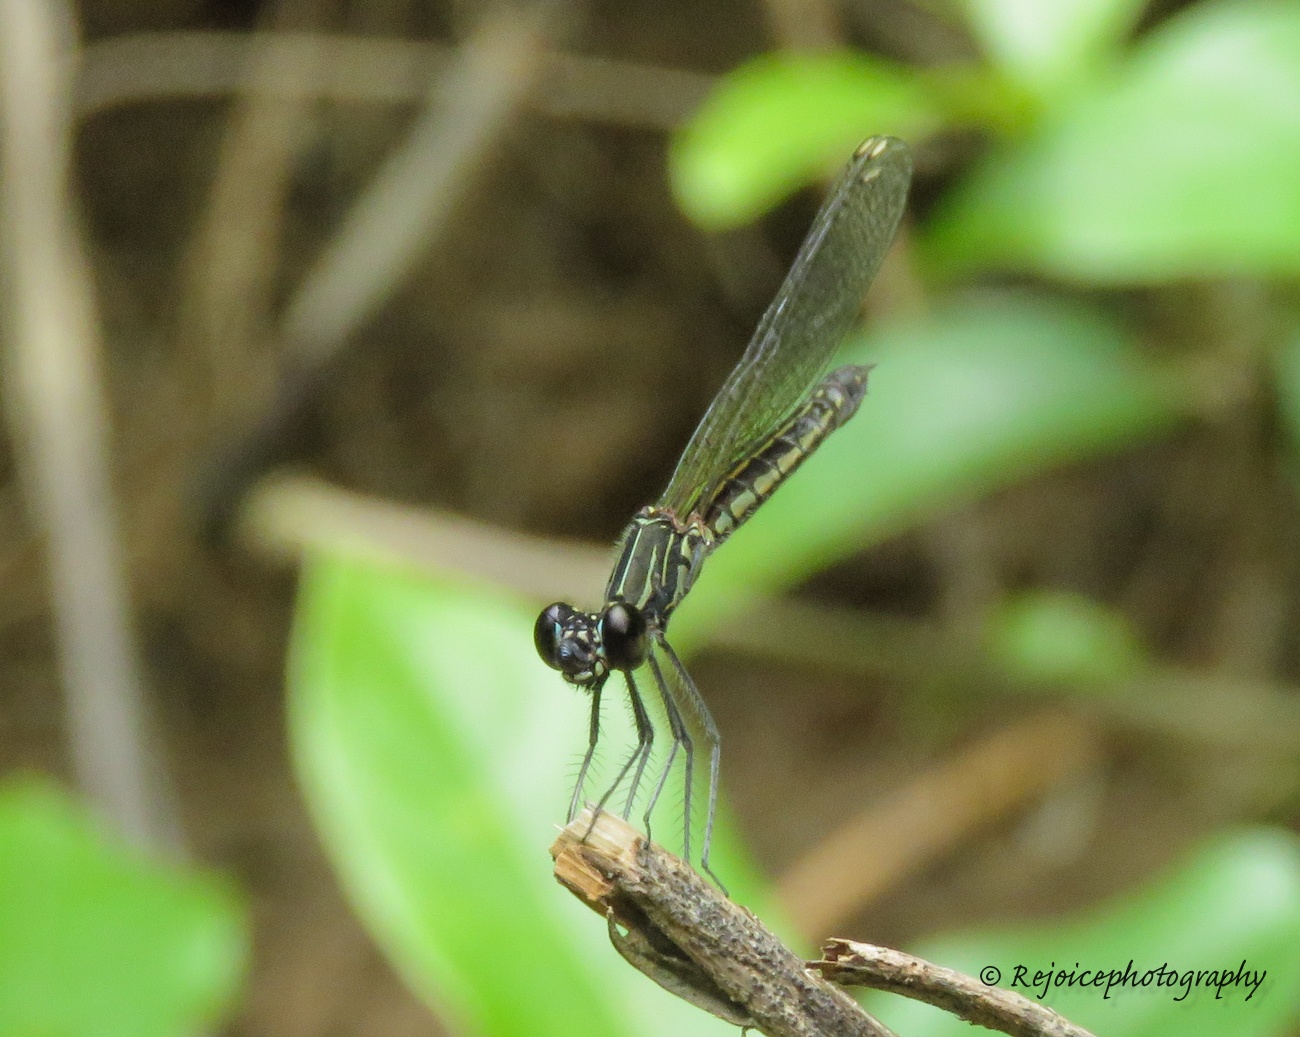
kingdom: Animalia
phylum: Arthropoda
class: Insecta
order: Odonata
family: Chlorocyphidae
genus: Libellago
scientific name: Libellago lineata
